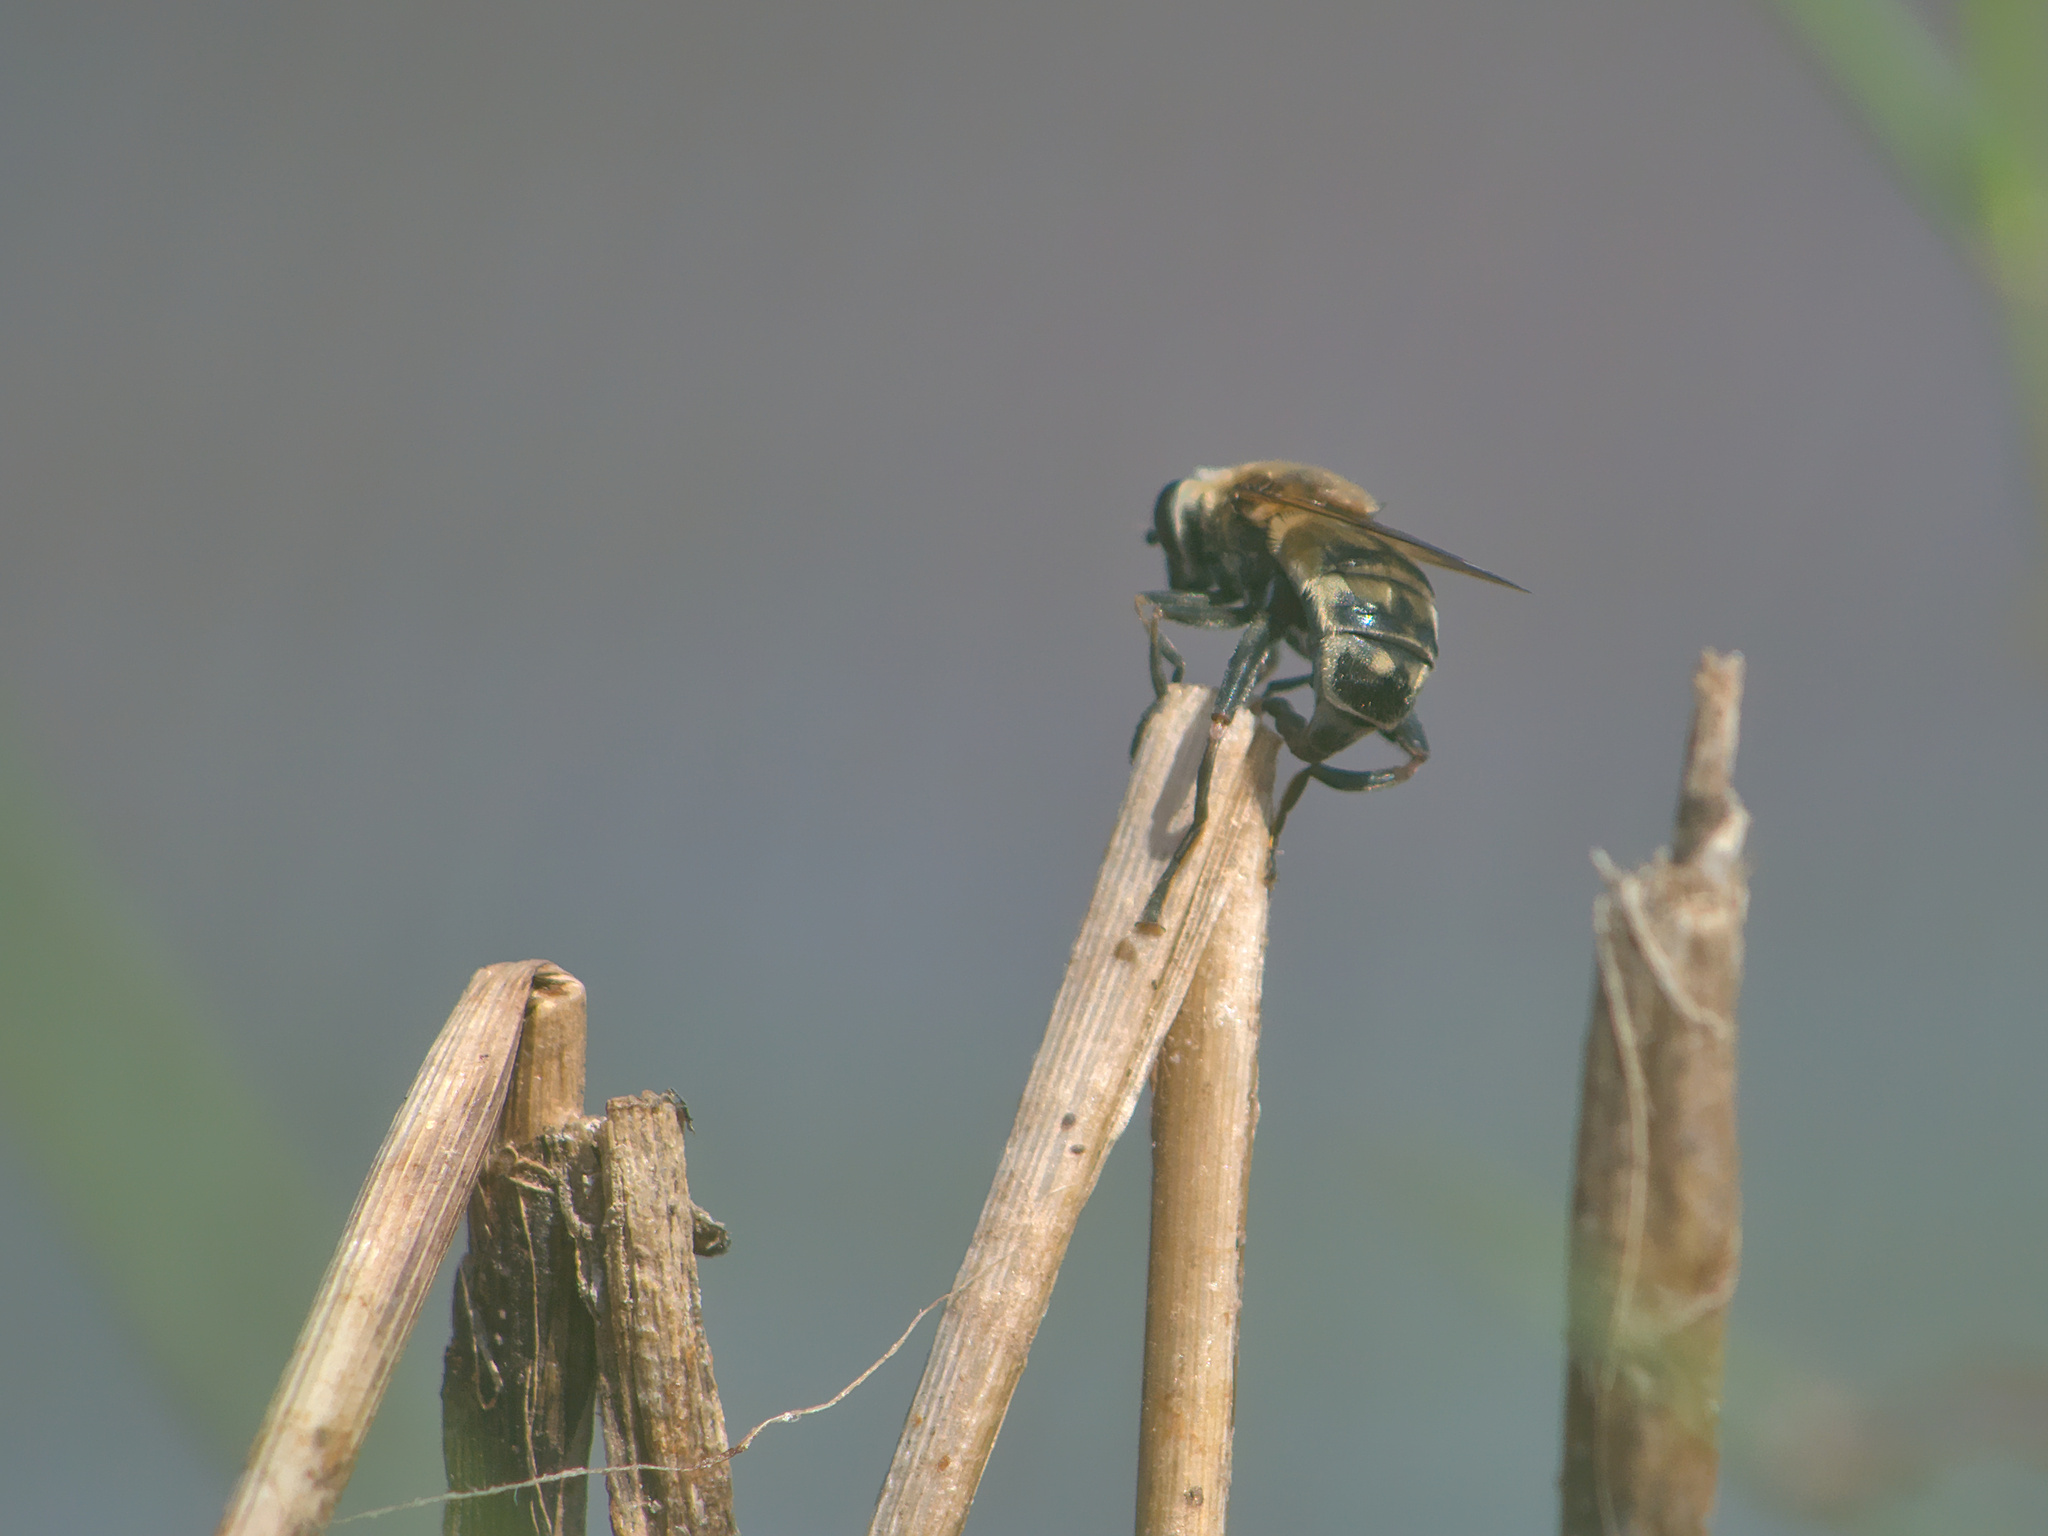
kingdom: Animalia
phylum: Arthropoda
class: Insecta
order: Diptera
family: Syrphidae
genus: Polydontomyia
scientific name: Polydontomyia curvipes
